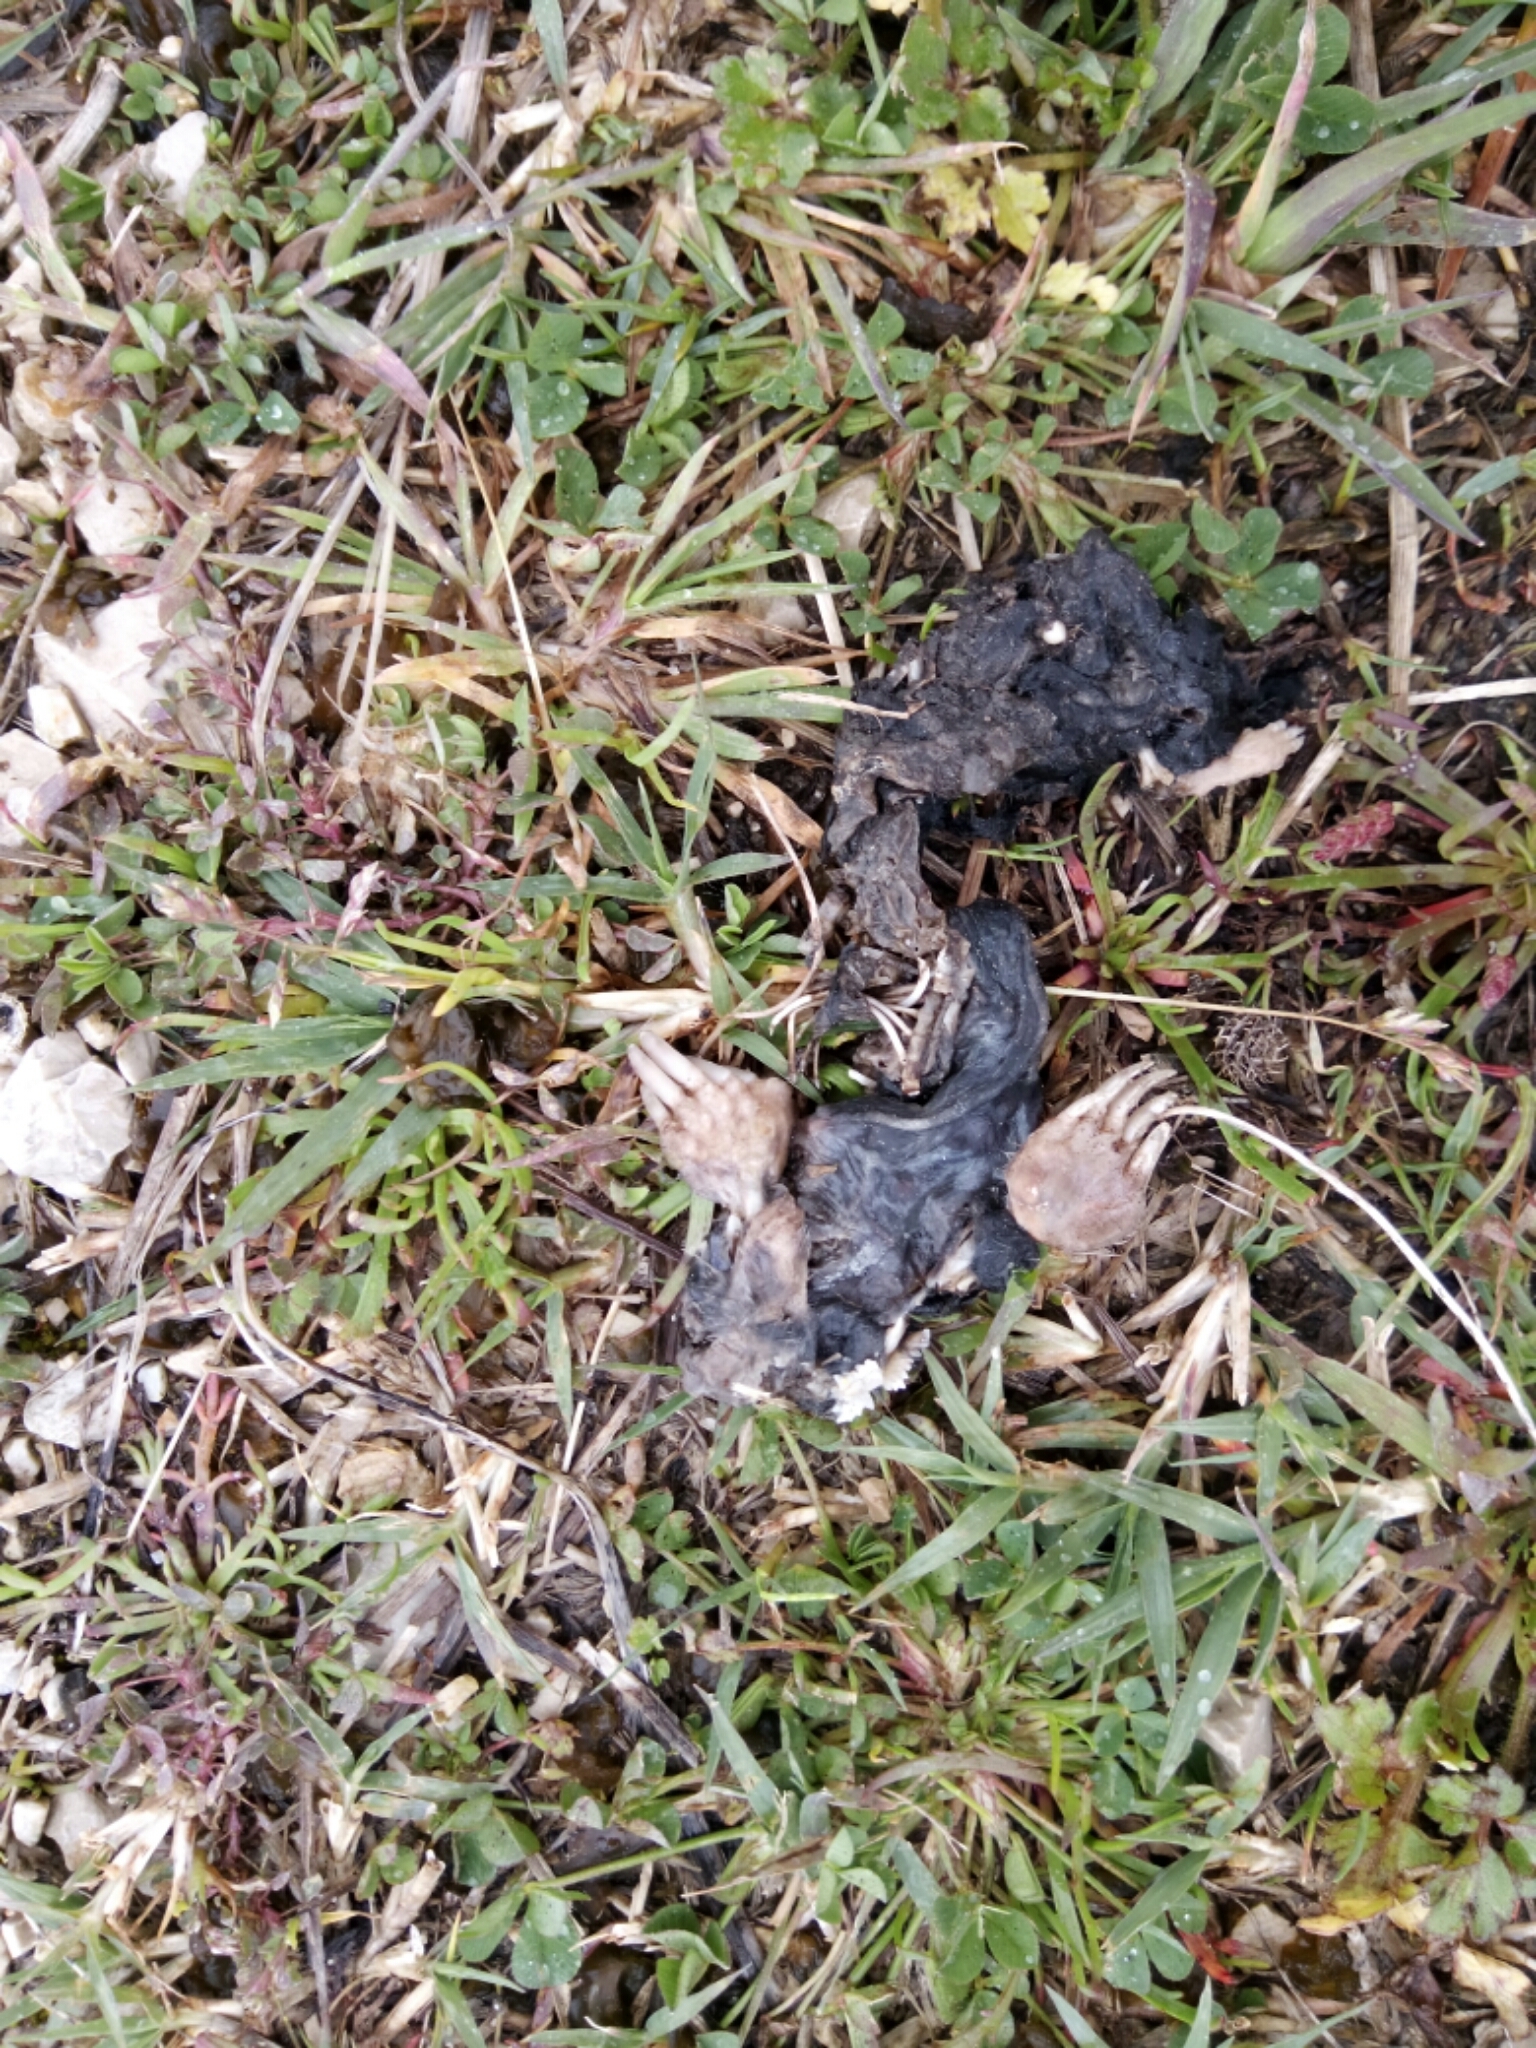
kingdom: Animalia
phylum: Chordata
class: Mammalia
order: Soricomorpha
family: Talpidae
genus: Talpa
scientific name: Talpa occidentalis
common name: Iberian mole
